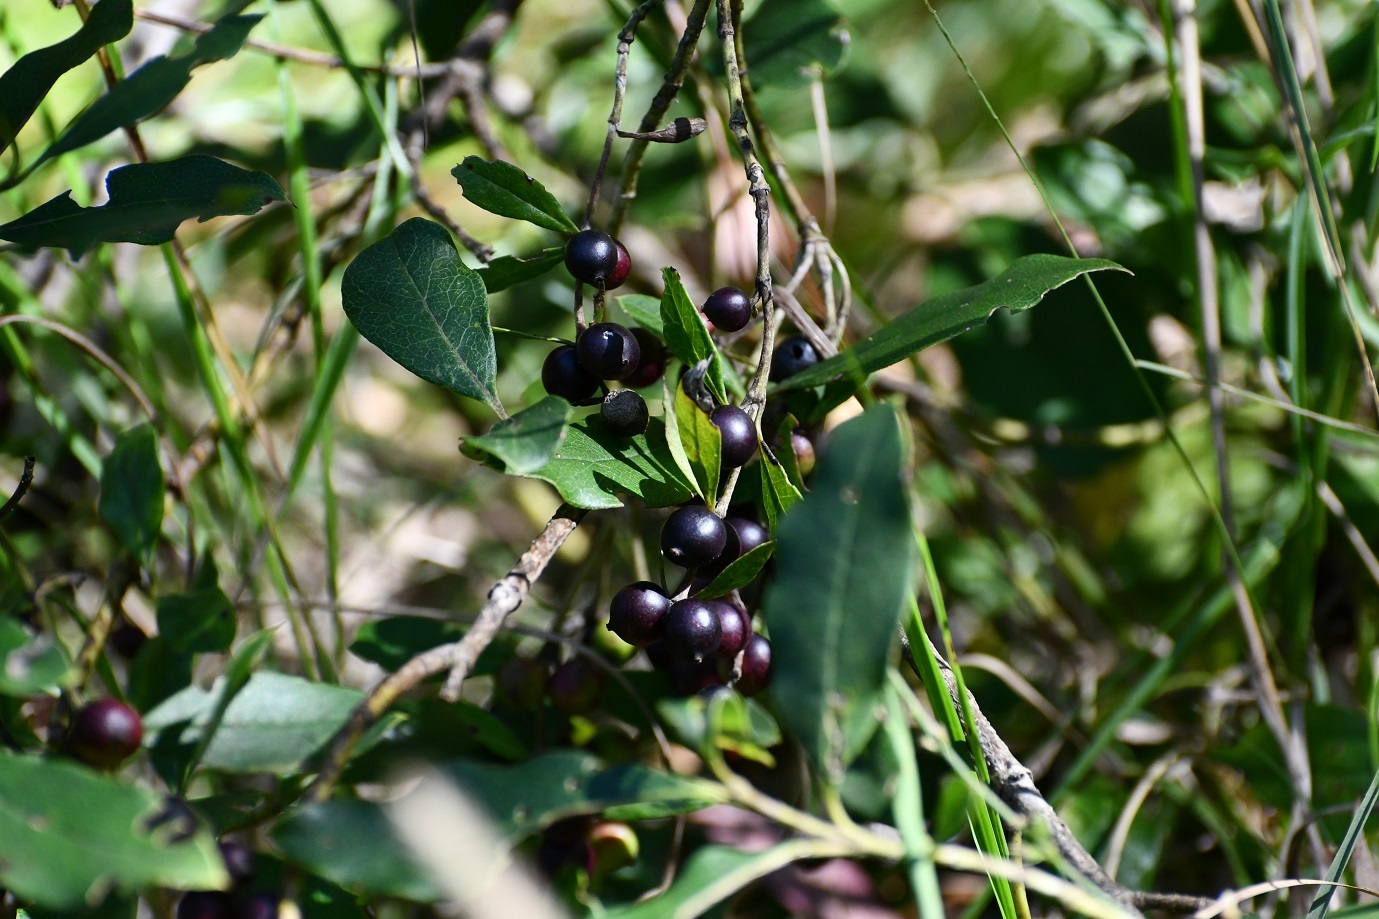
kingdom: Plantae
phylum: Tracheophyta
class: Magnoliopsida
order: Garryales
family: Garryaceae
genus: Garrya
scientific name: Garrya laurifolia
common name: Cuachichic
